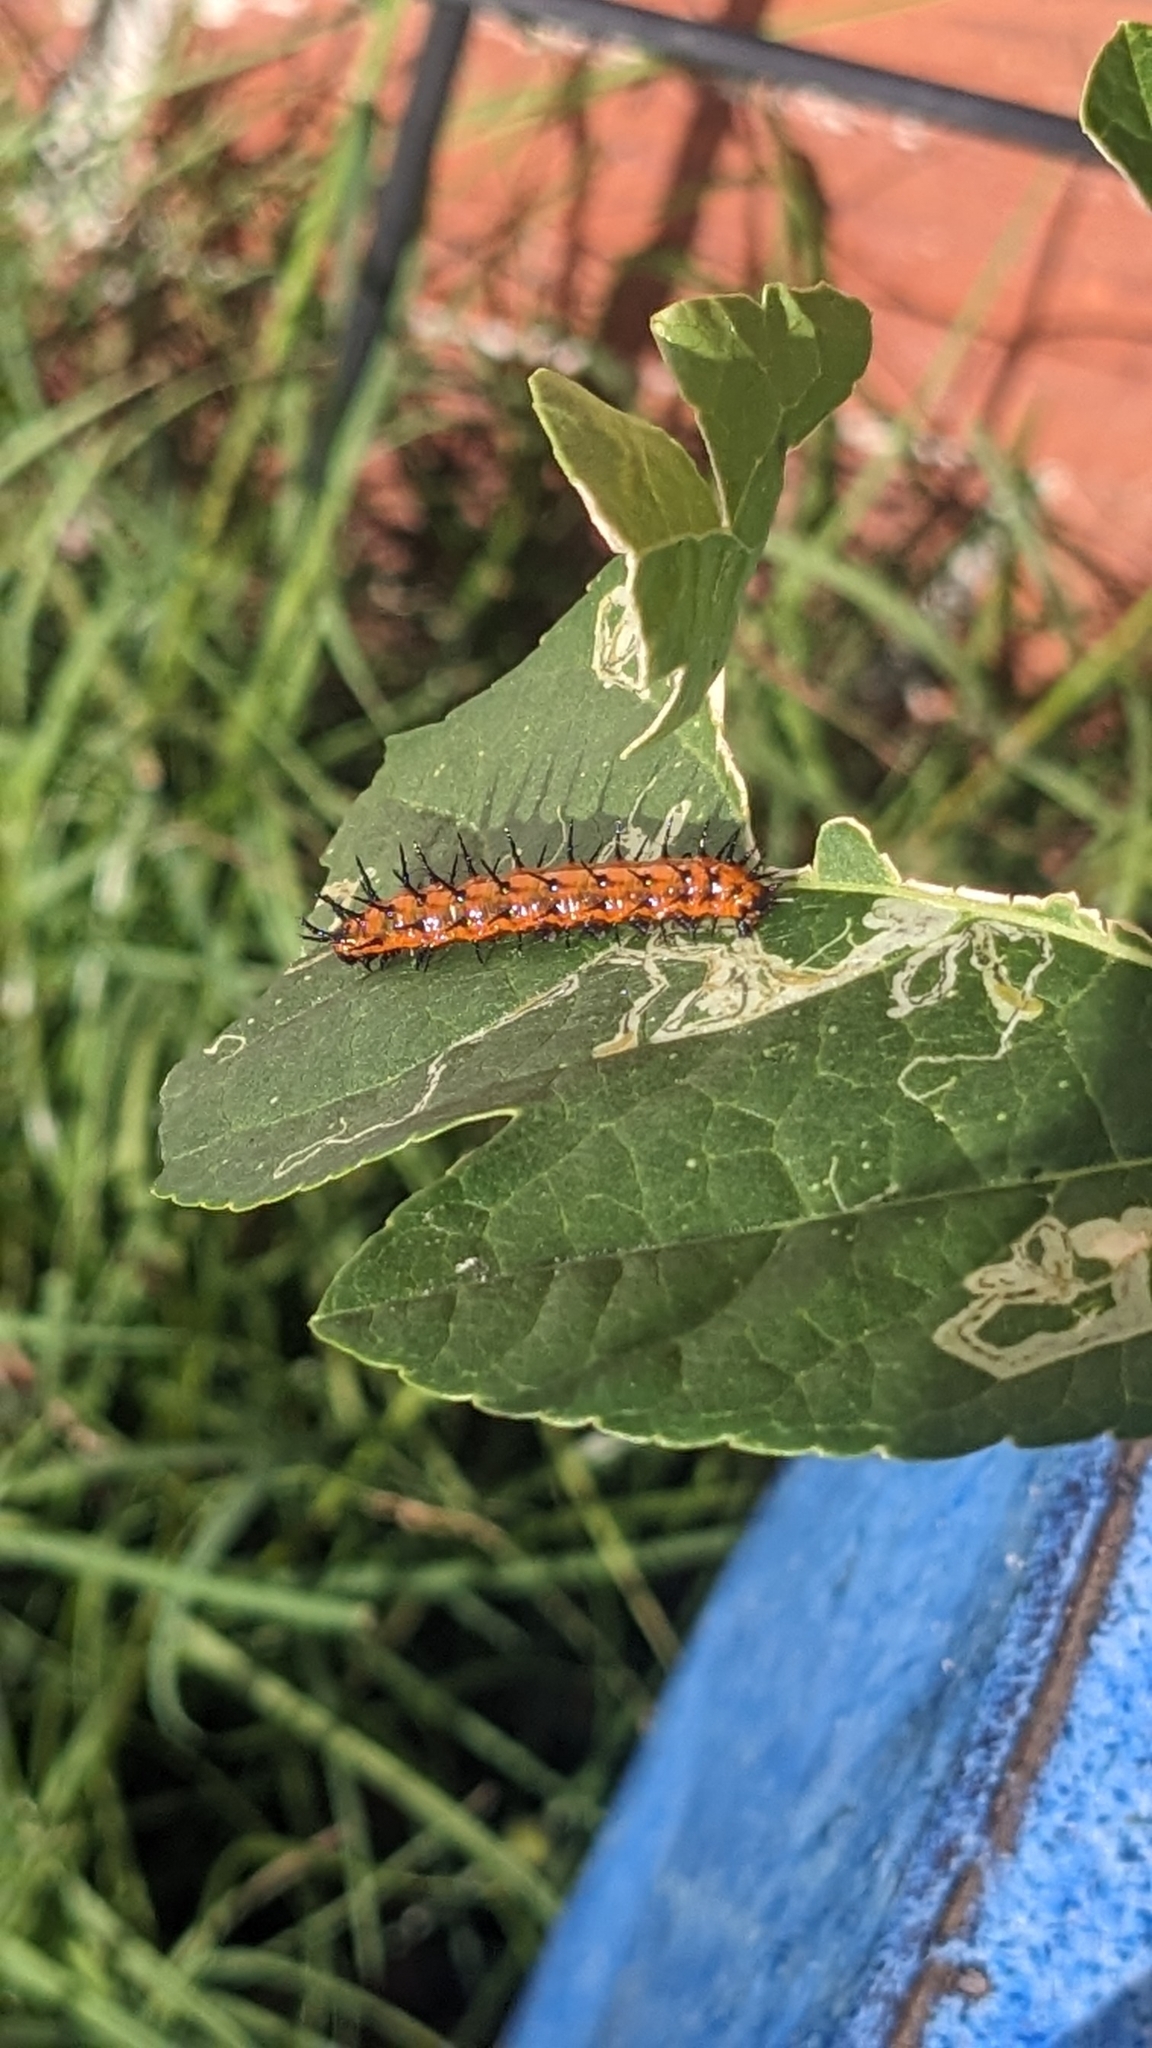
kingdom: Animalia
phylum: Arthropoda
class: Insecta
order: Lepidoptera
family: Nymphalidae
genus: Dione
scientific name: Dione vanillae
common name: Gulf fritillary
